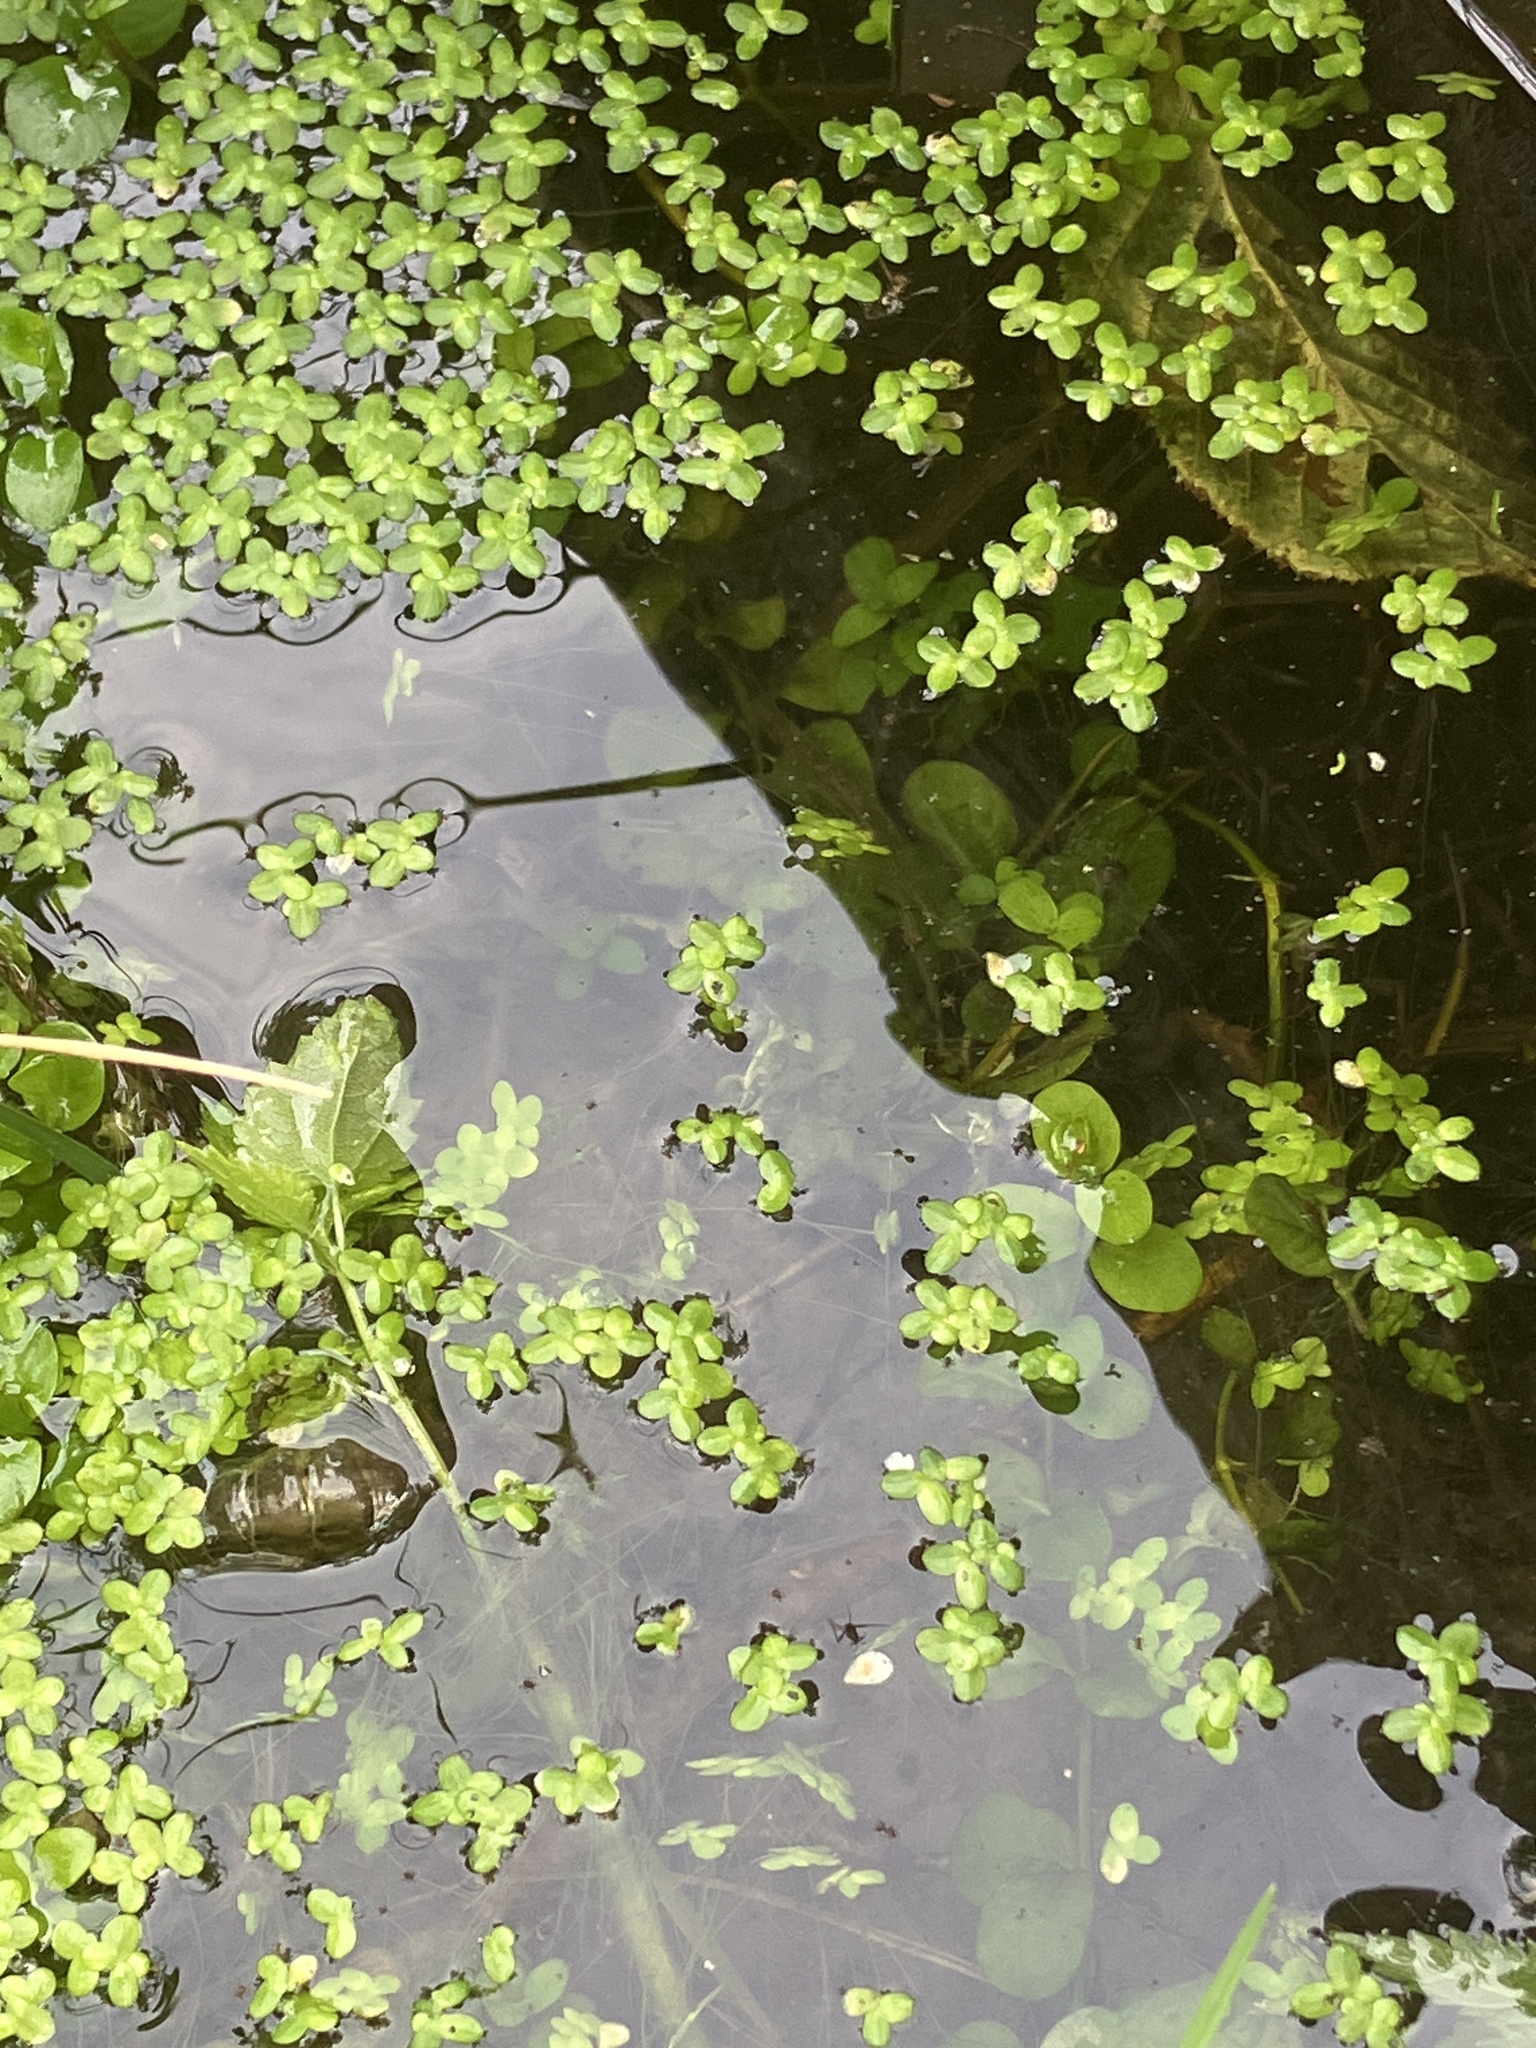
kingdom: Plantae
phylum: Tracheophyta
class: Liliopsida
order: Alismatales
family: Araceae
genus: Lemna
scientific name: Lemna minor
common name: Common duckweed
